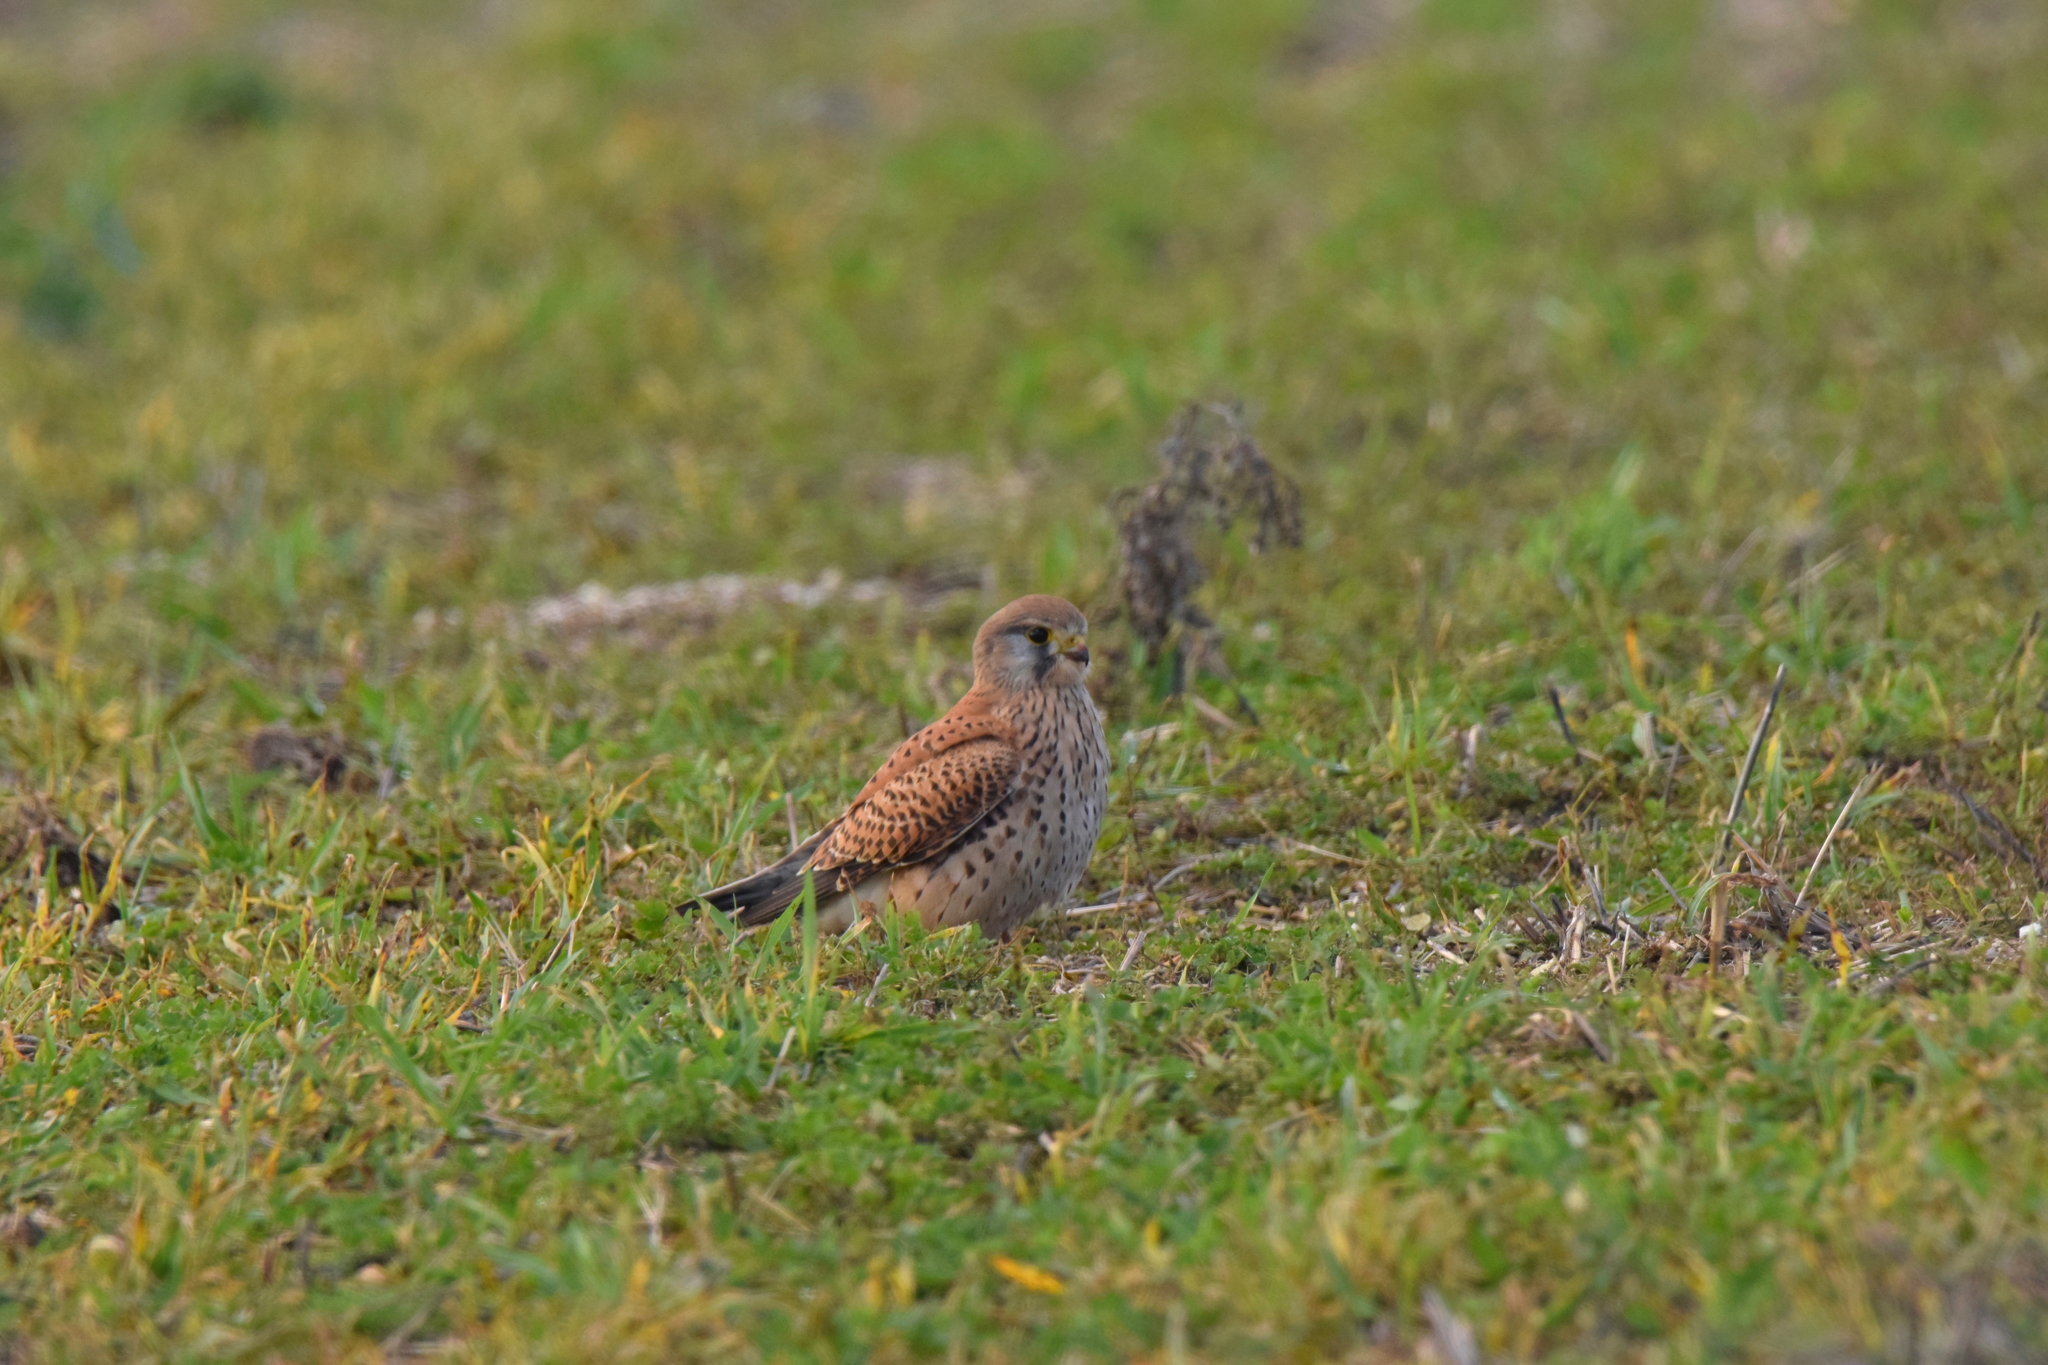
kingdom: Animalia
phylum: Chordata
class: Aves
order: Falconiformes
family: Falconidae
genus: Falco
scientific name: Falco tinnunculus
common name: Common kestrel
